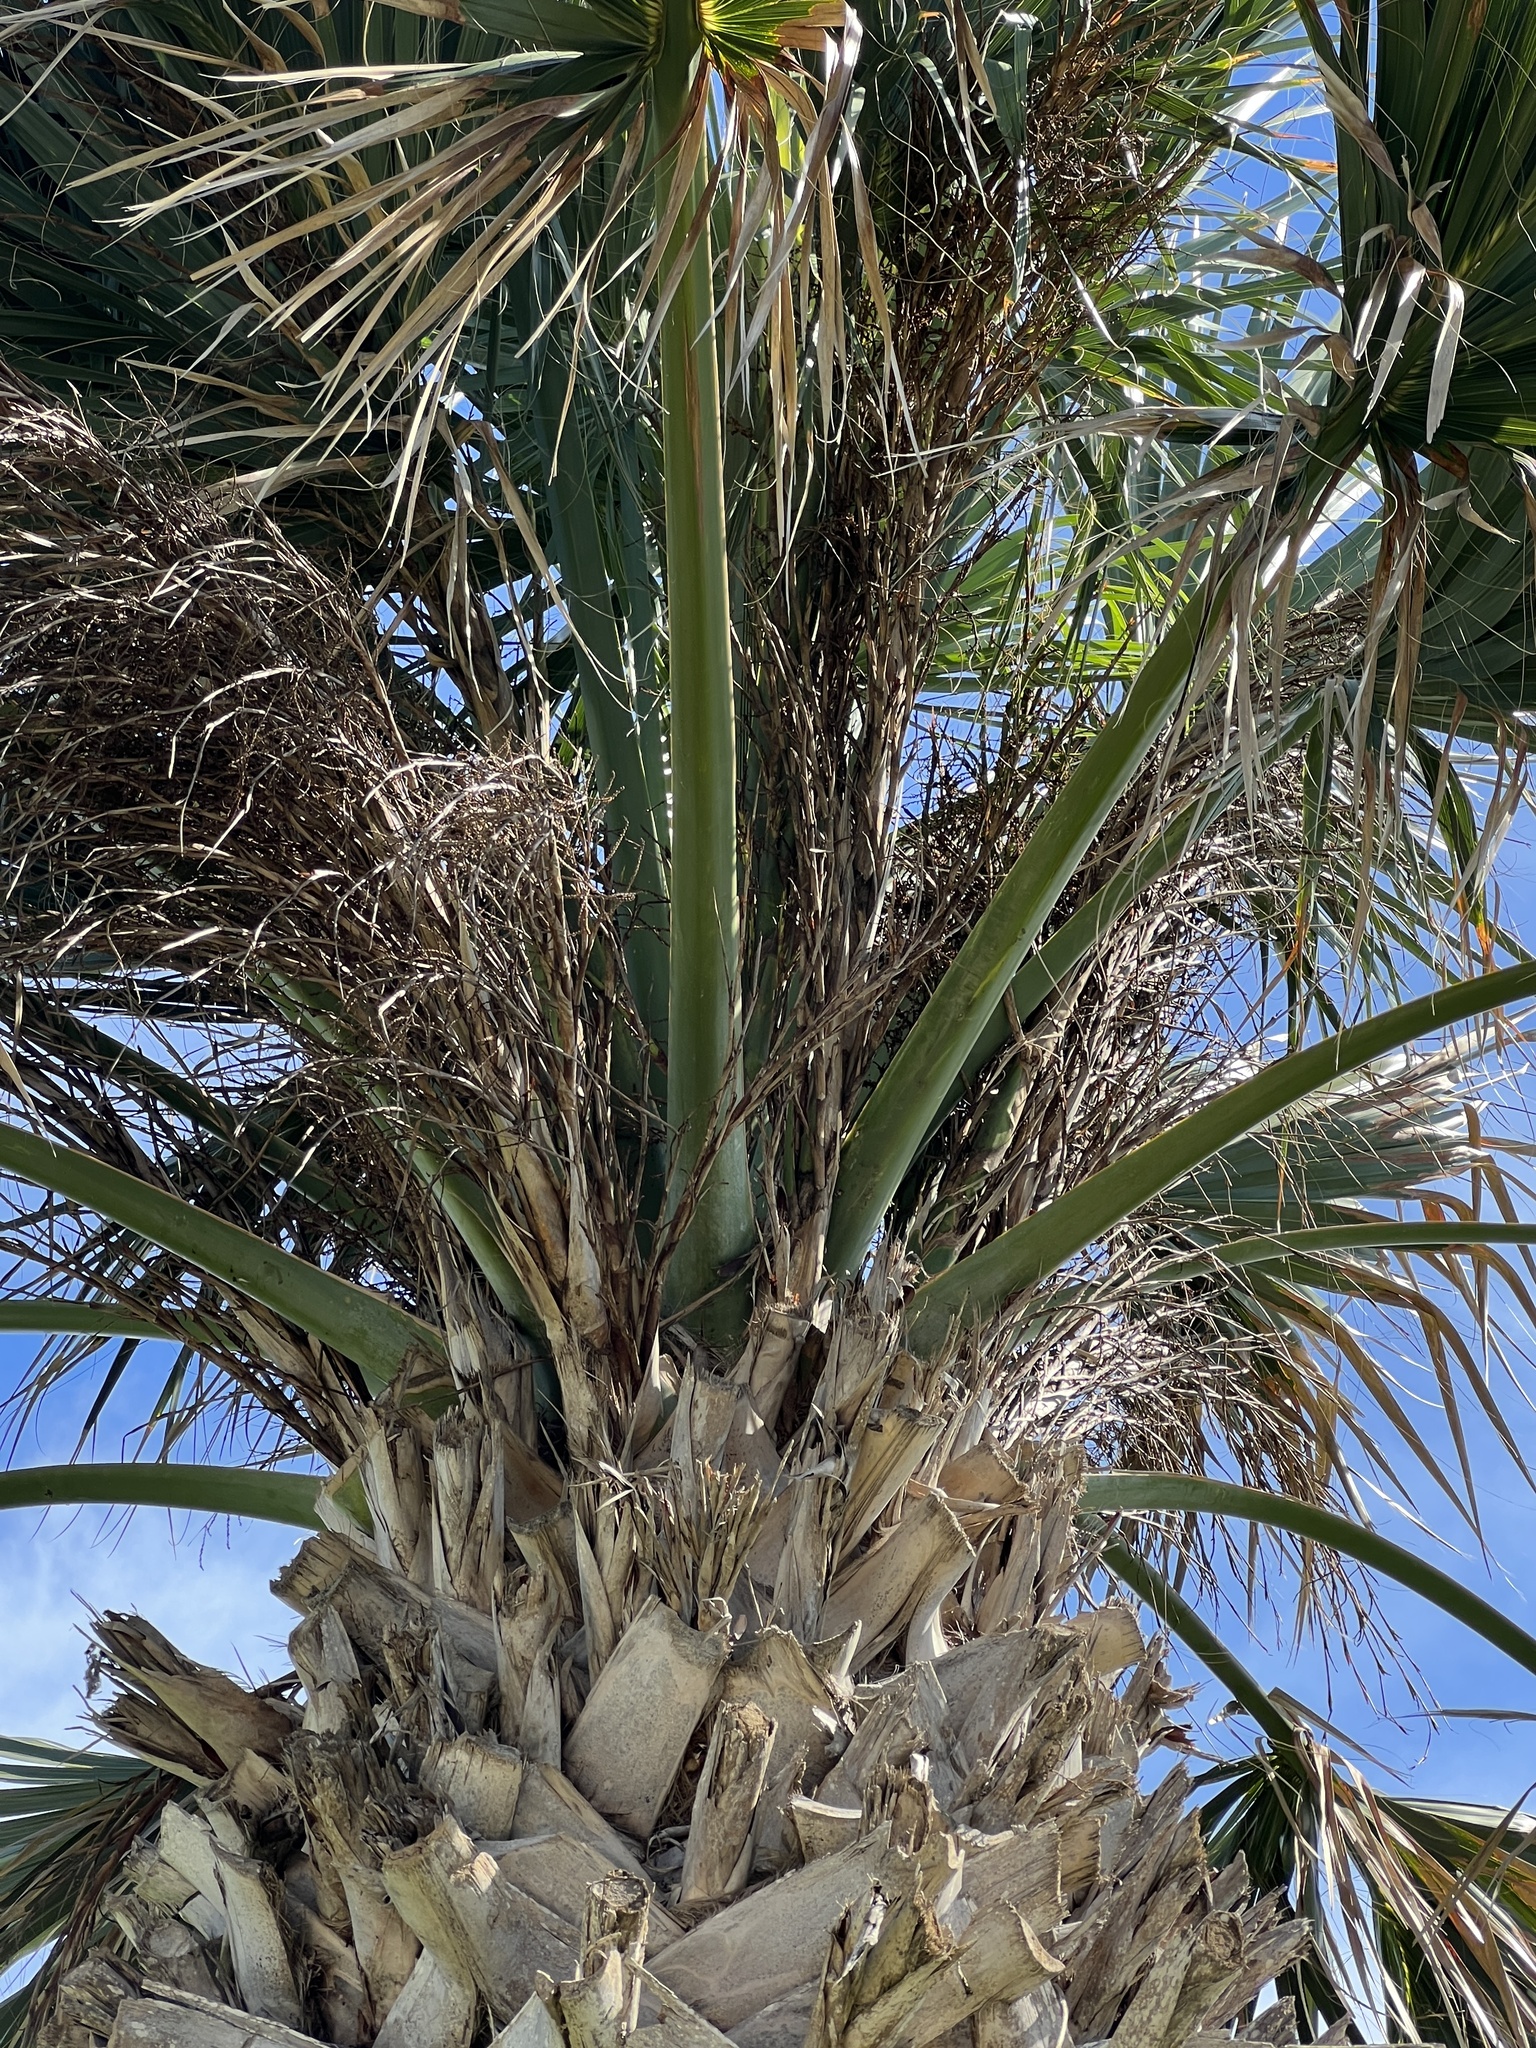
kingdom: Plantae
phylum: Tracheophyta
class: Liliopsida
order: Arecales
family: Arecaceae
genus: Sabal
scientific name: Sabal mexicana
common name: Texas palmetto
